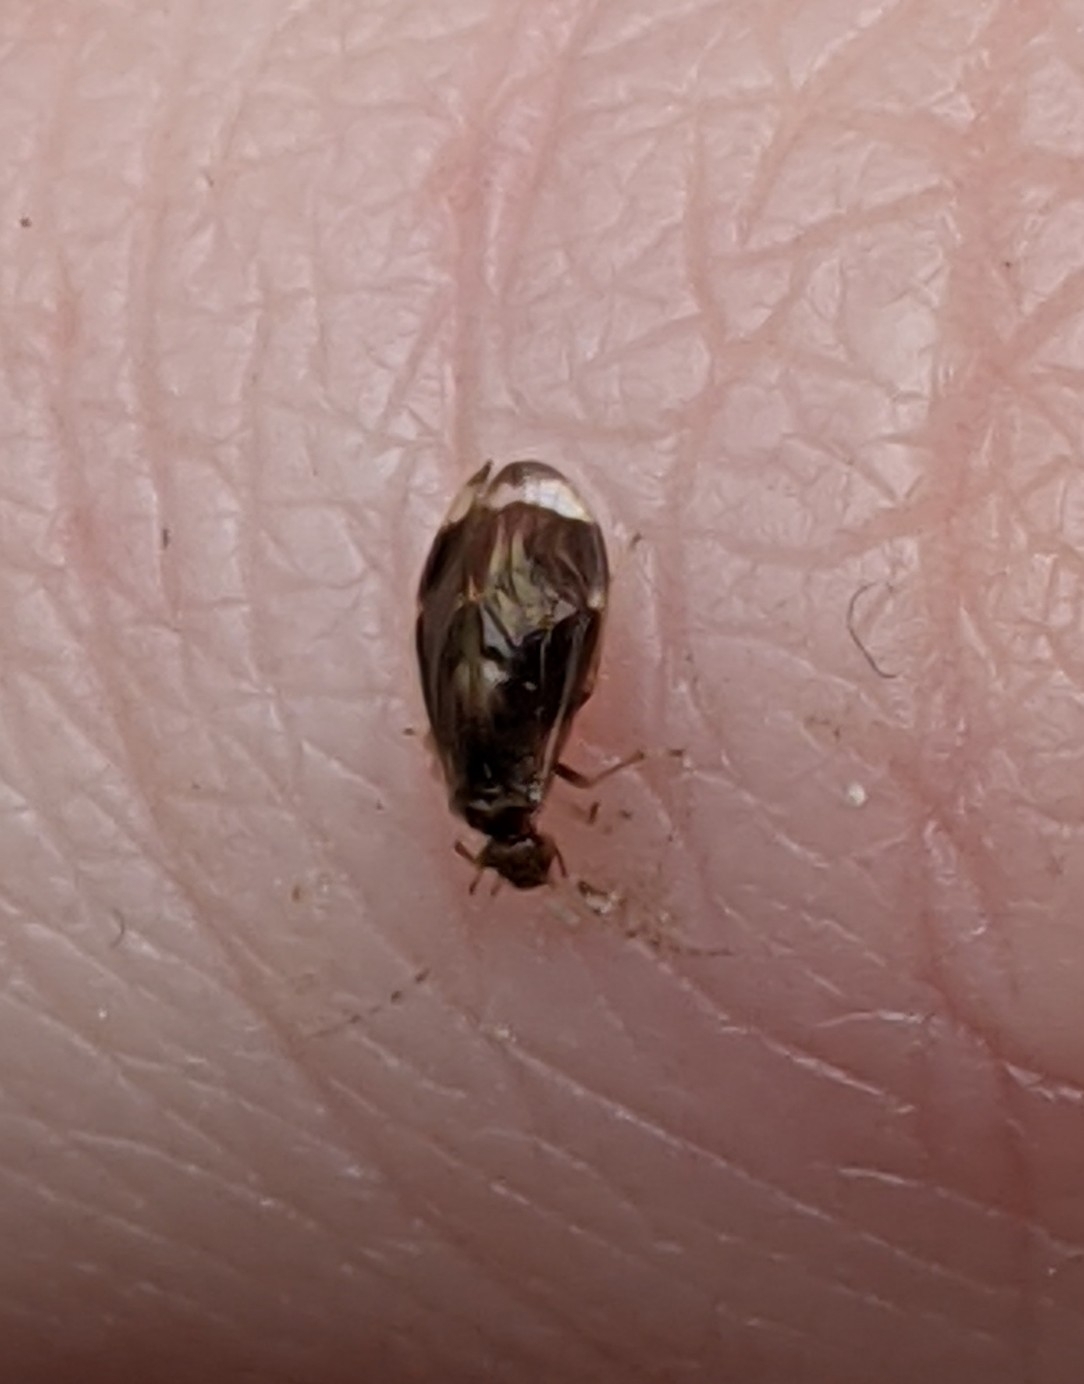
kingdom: Animalia
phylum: Arthropoda
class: Insecta
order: Psocodea
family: Amphipsocidae
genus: Polypsocus
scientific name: Polypsocus corruptus
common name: Corrupt barklouse
